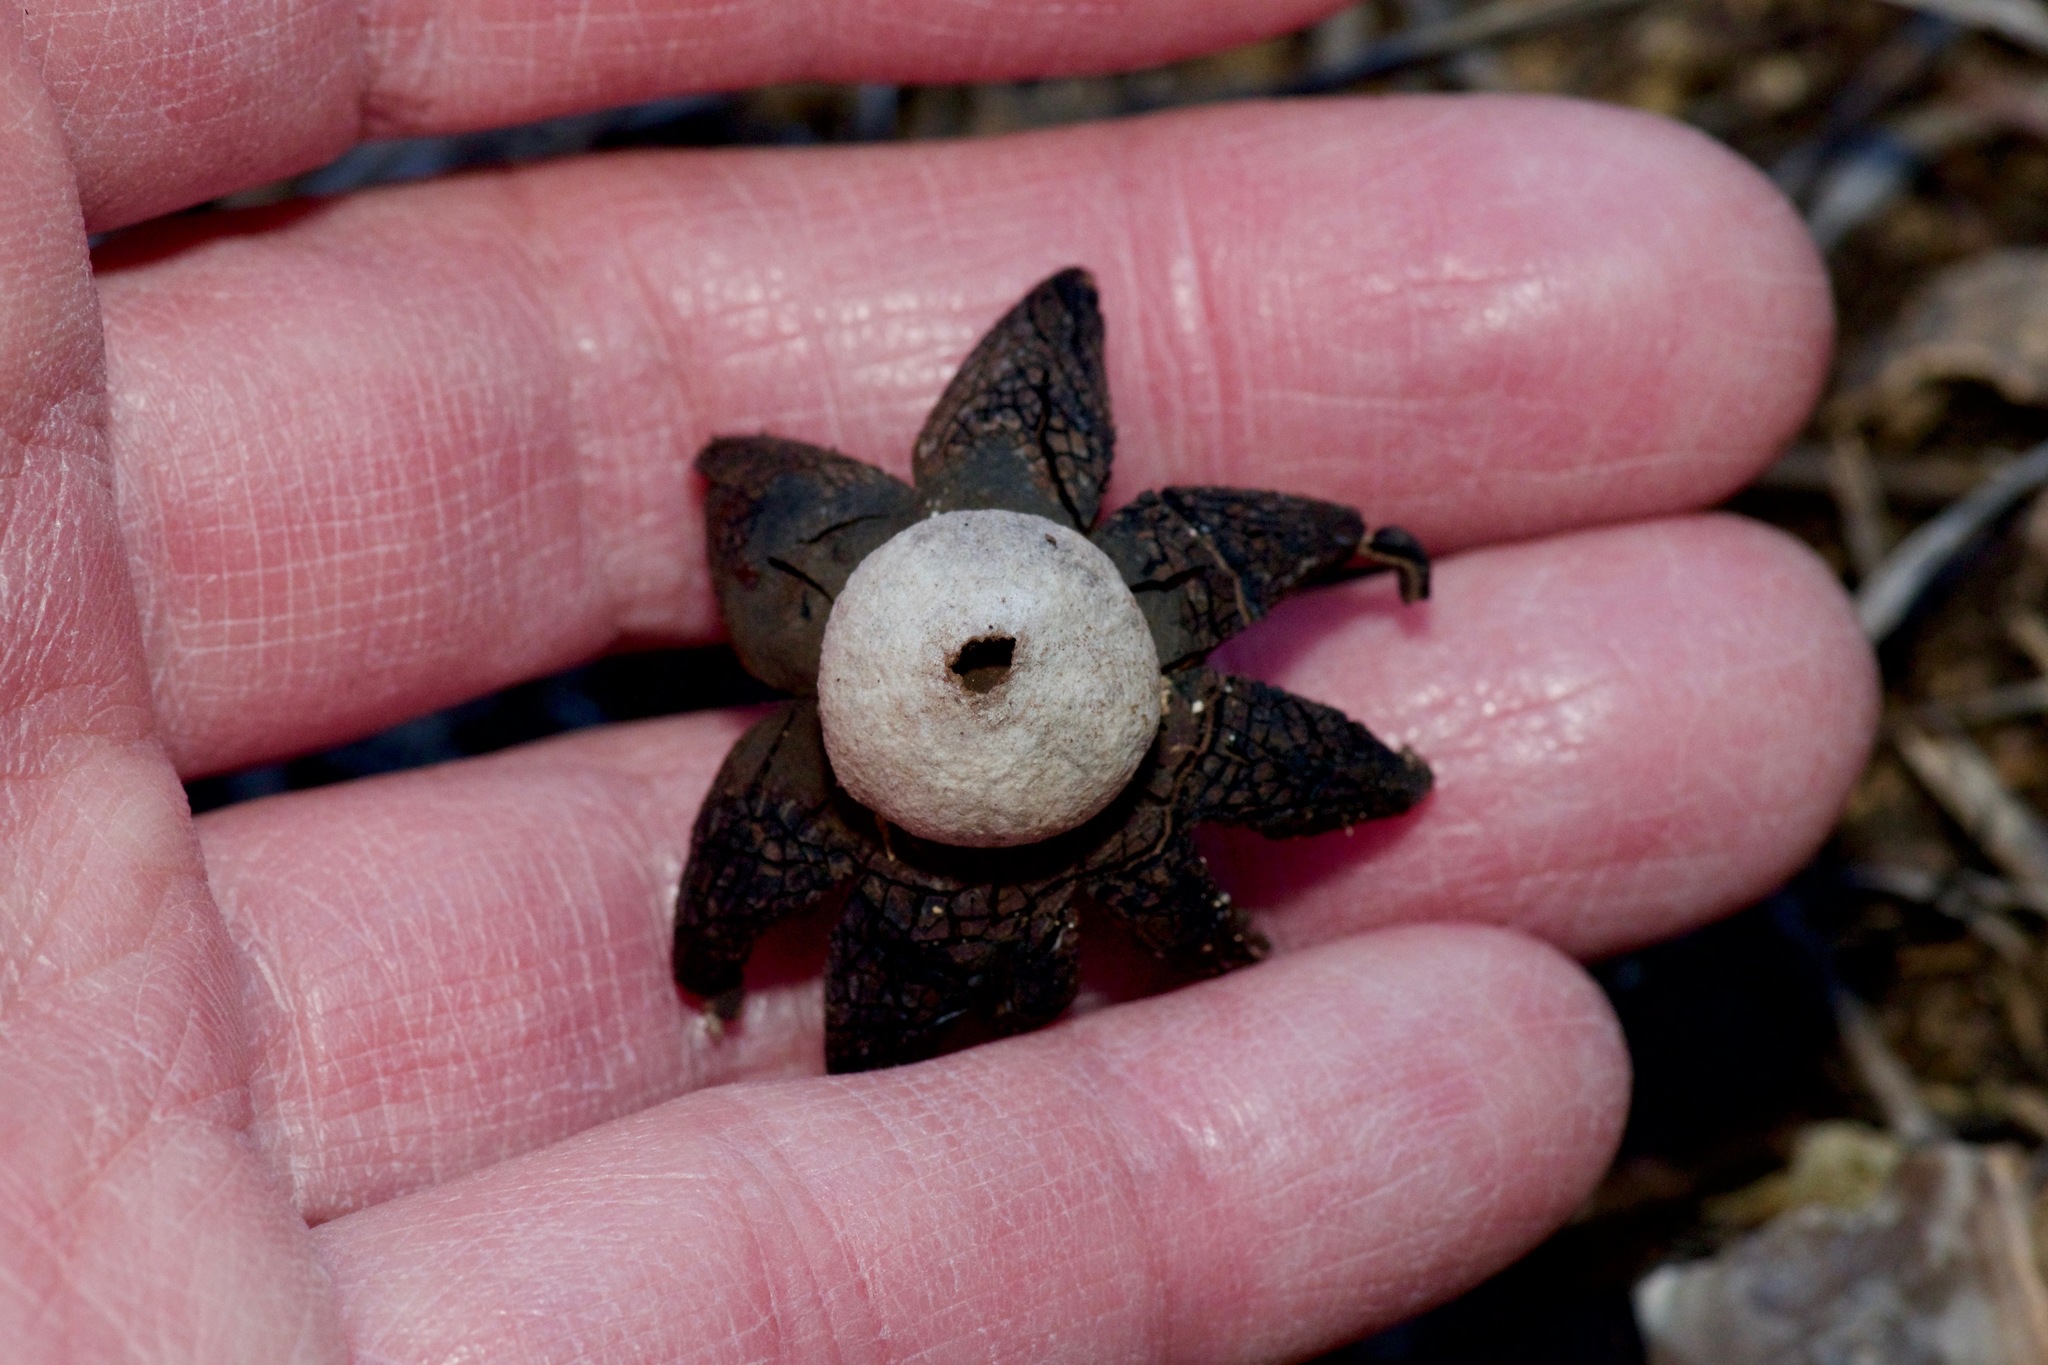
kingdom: Fungi
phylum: Basidiomycota
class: Agaricomycetes
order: Boletales
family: Diplocystidiaceae
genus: Astraeus
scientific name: Astraeus morganii
